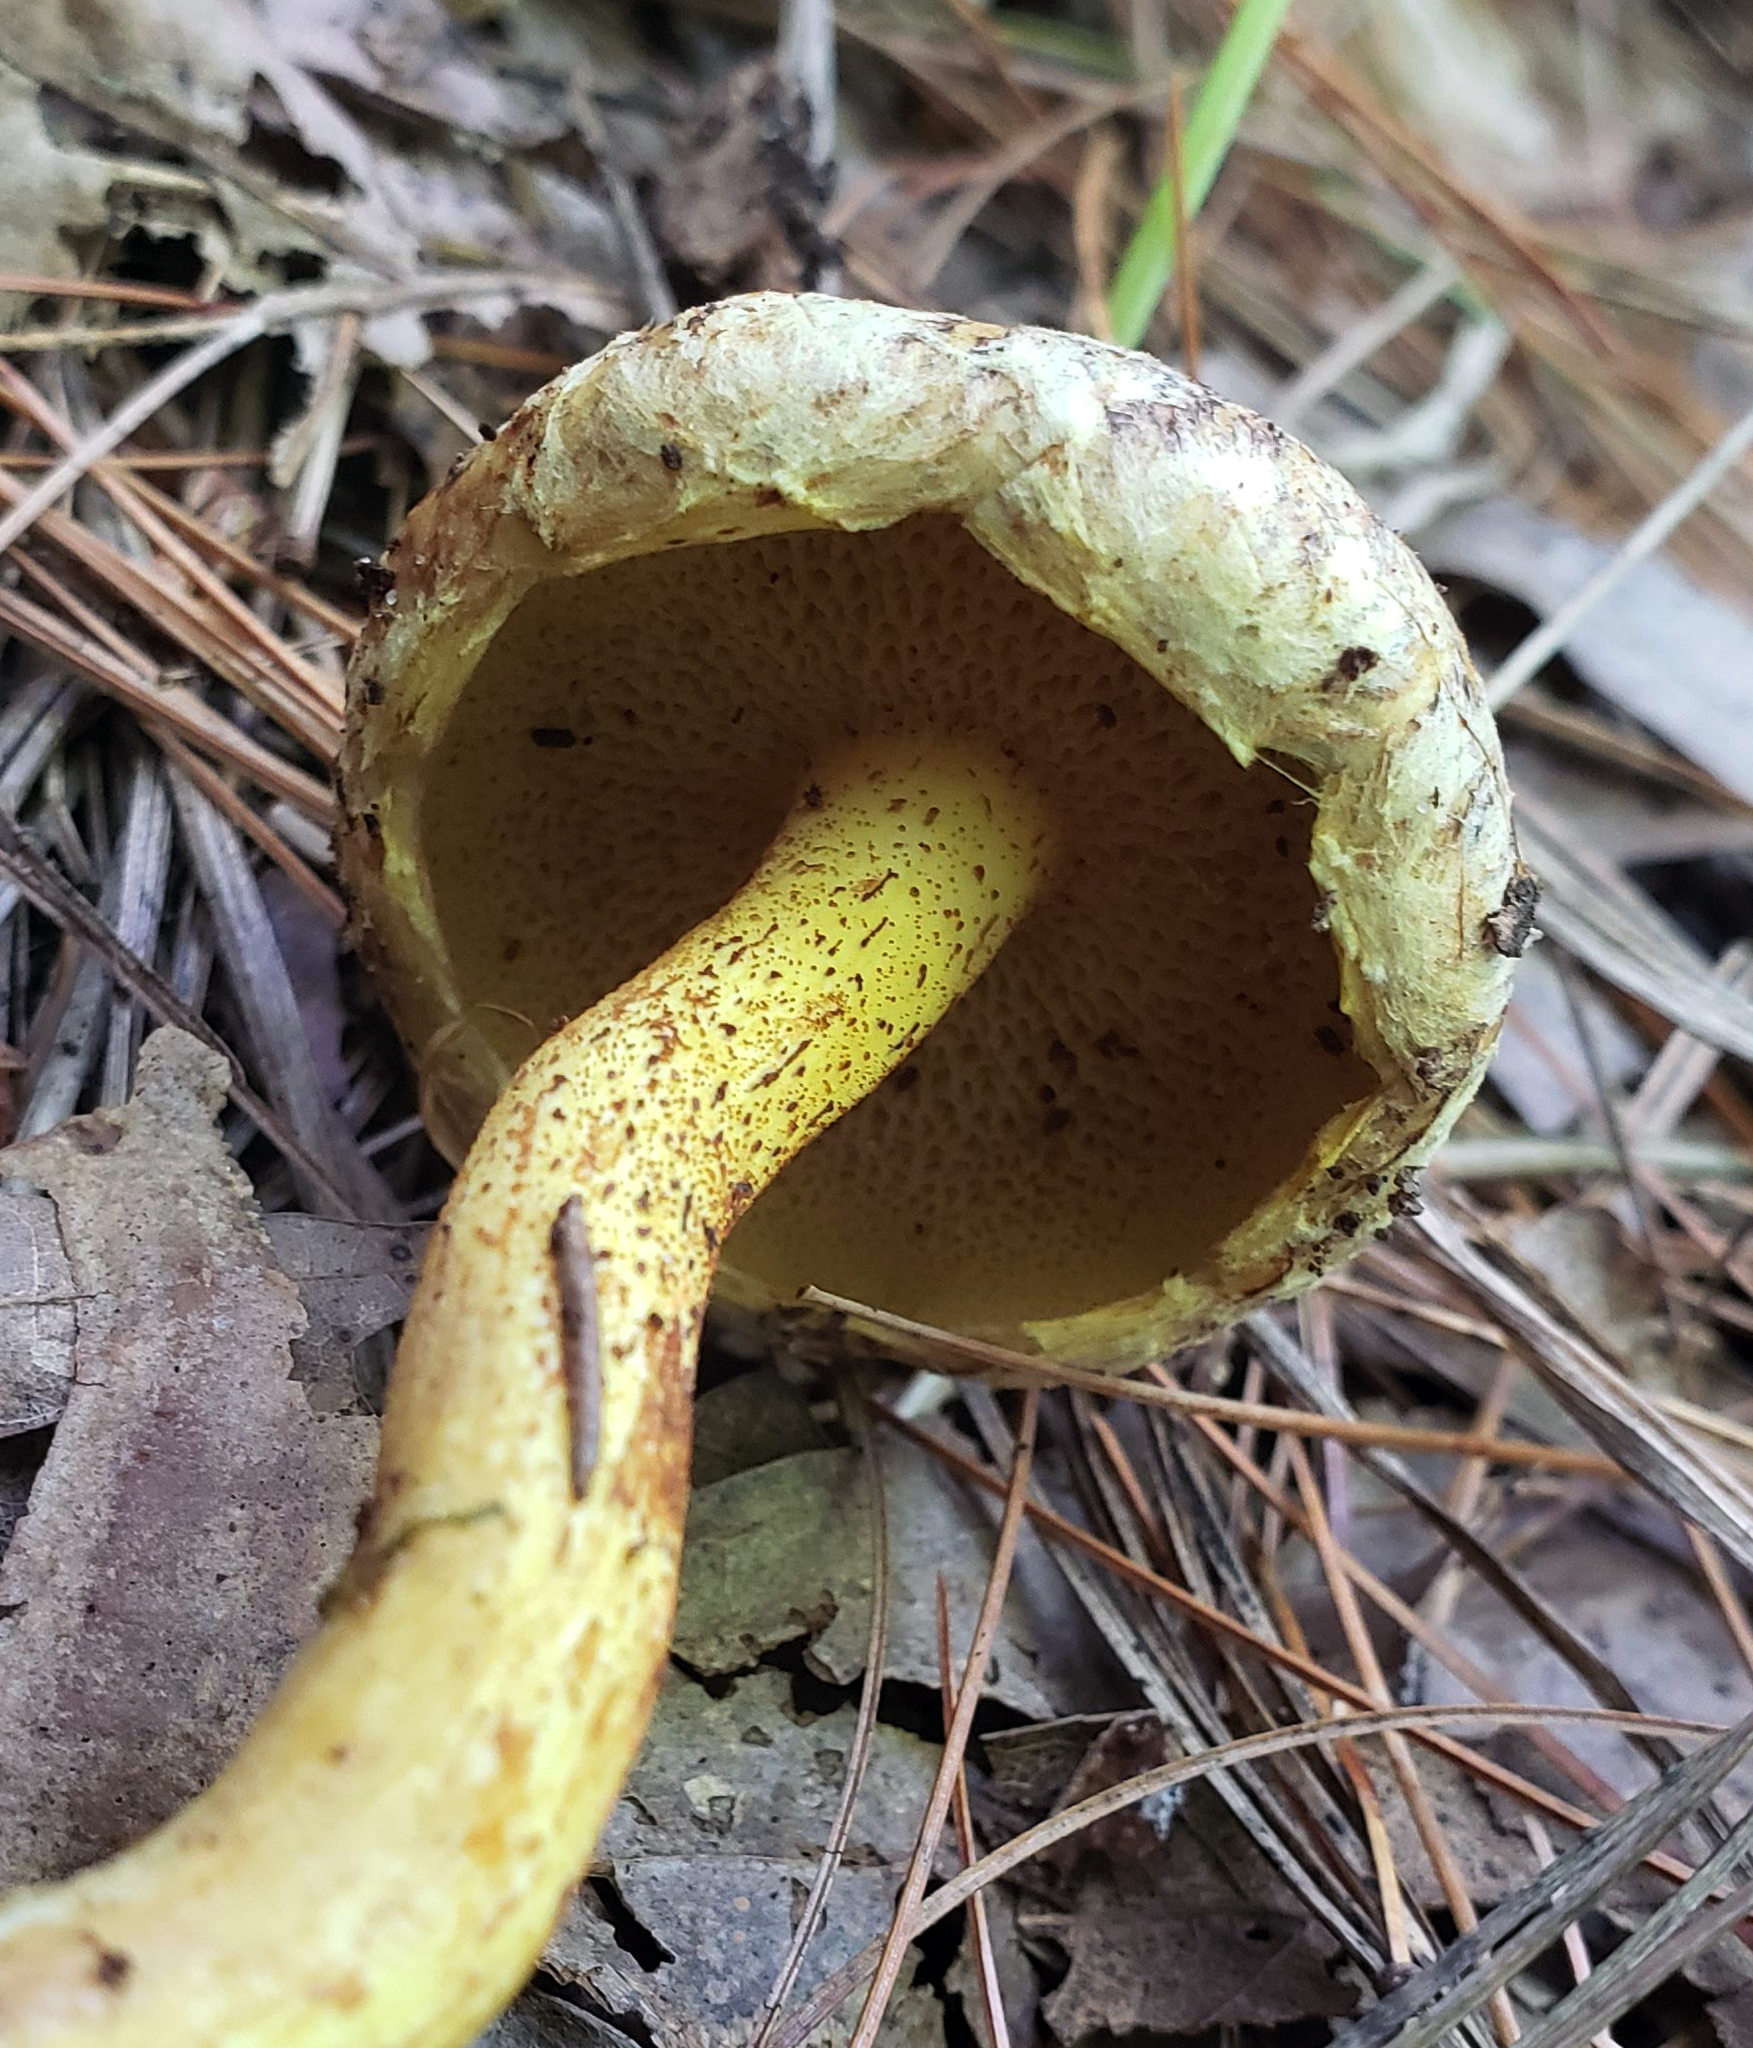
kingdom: Fungi
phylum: Basidiomycota
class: Agaricomycetes
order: Boletales
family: Suillaceae
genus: Suillus
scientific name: Suillus americanus
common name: Chicken fat mushroom
